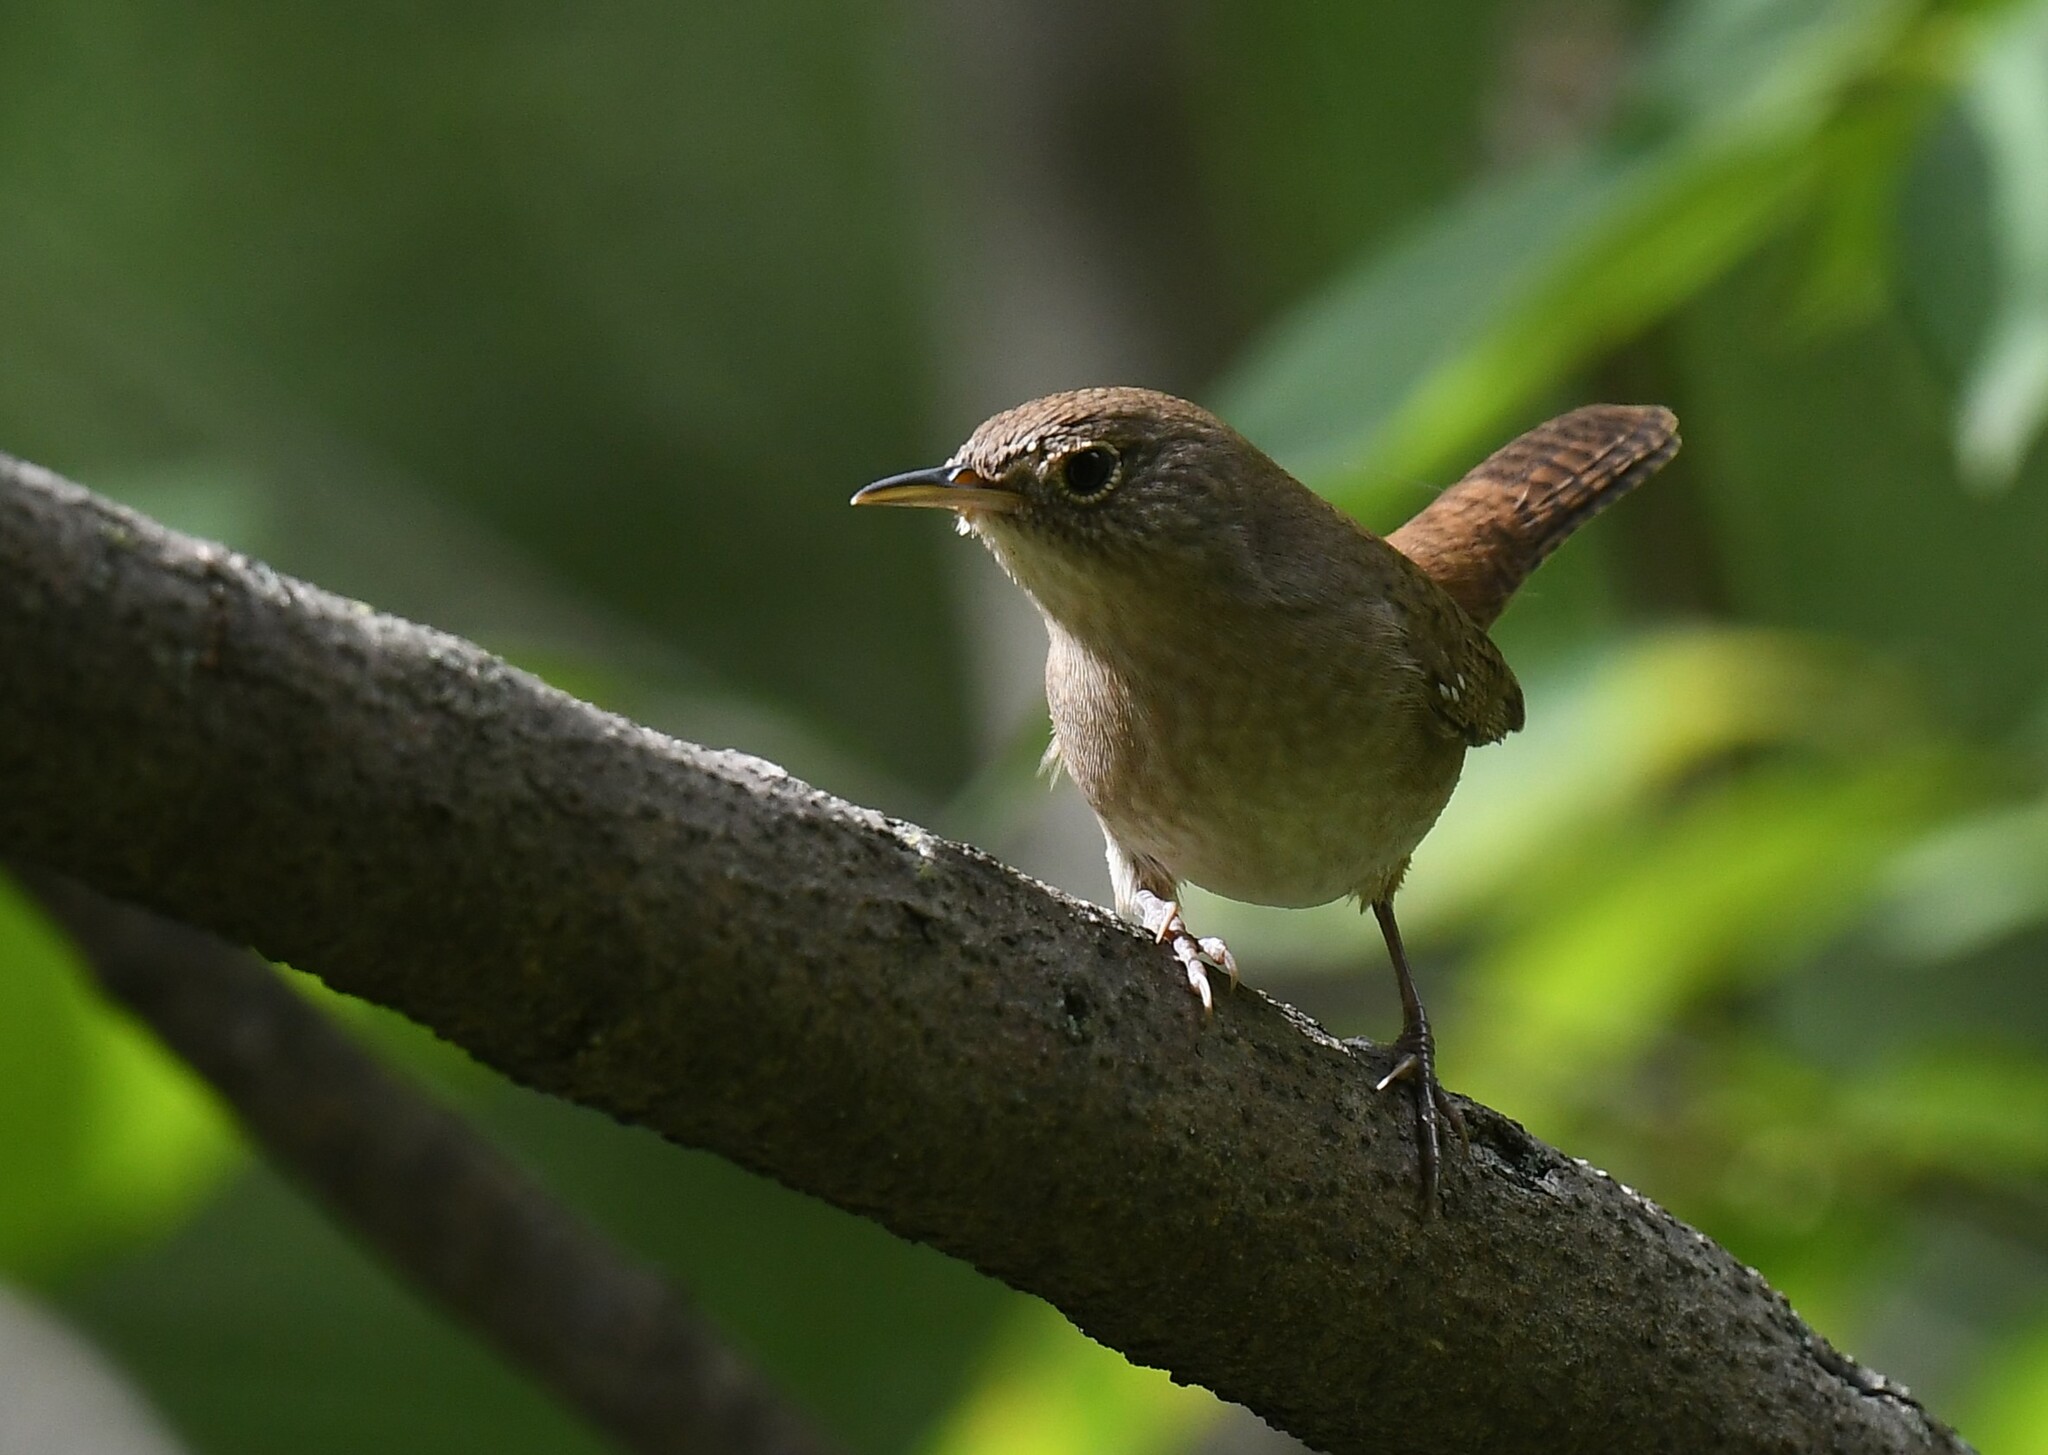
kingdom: Animalia
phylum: Chordata
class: Aves
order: Passeriformes
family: Troglodytidae
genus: Troglodytes
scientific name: Troglodytes aedon
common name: House wren
